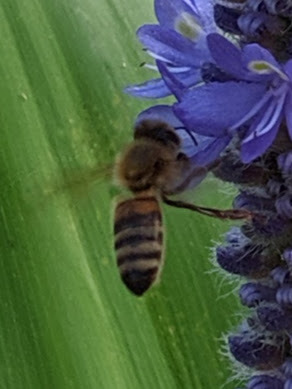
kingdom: Animalia
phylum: Arthropoda
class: Insecta
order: Hymenoptera
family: Apidae
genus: Apis
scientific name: Apis mellifera
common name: Honey bee
